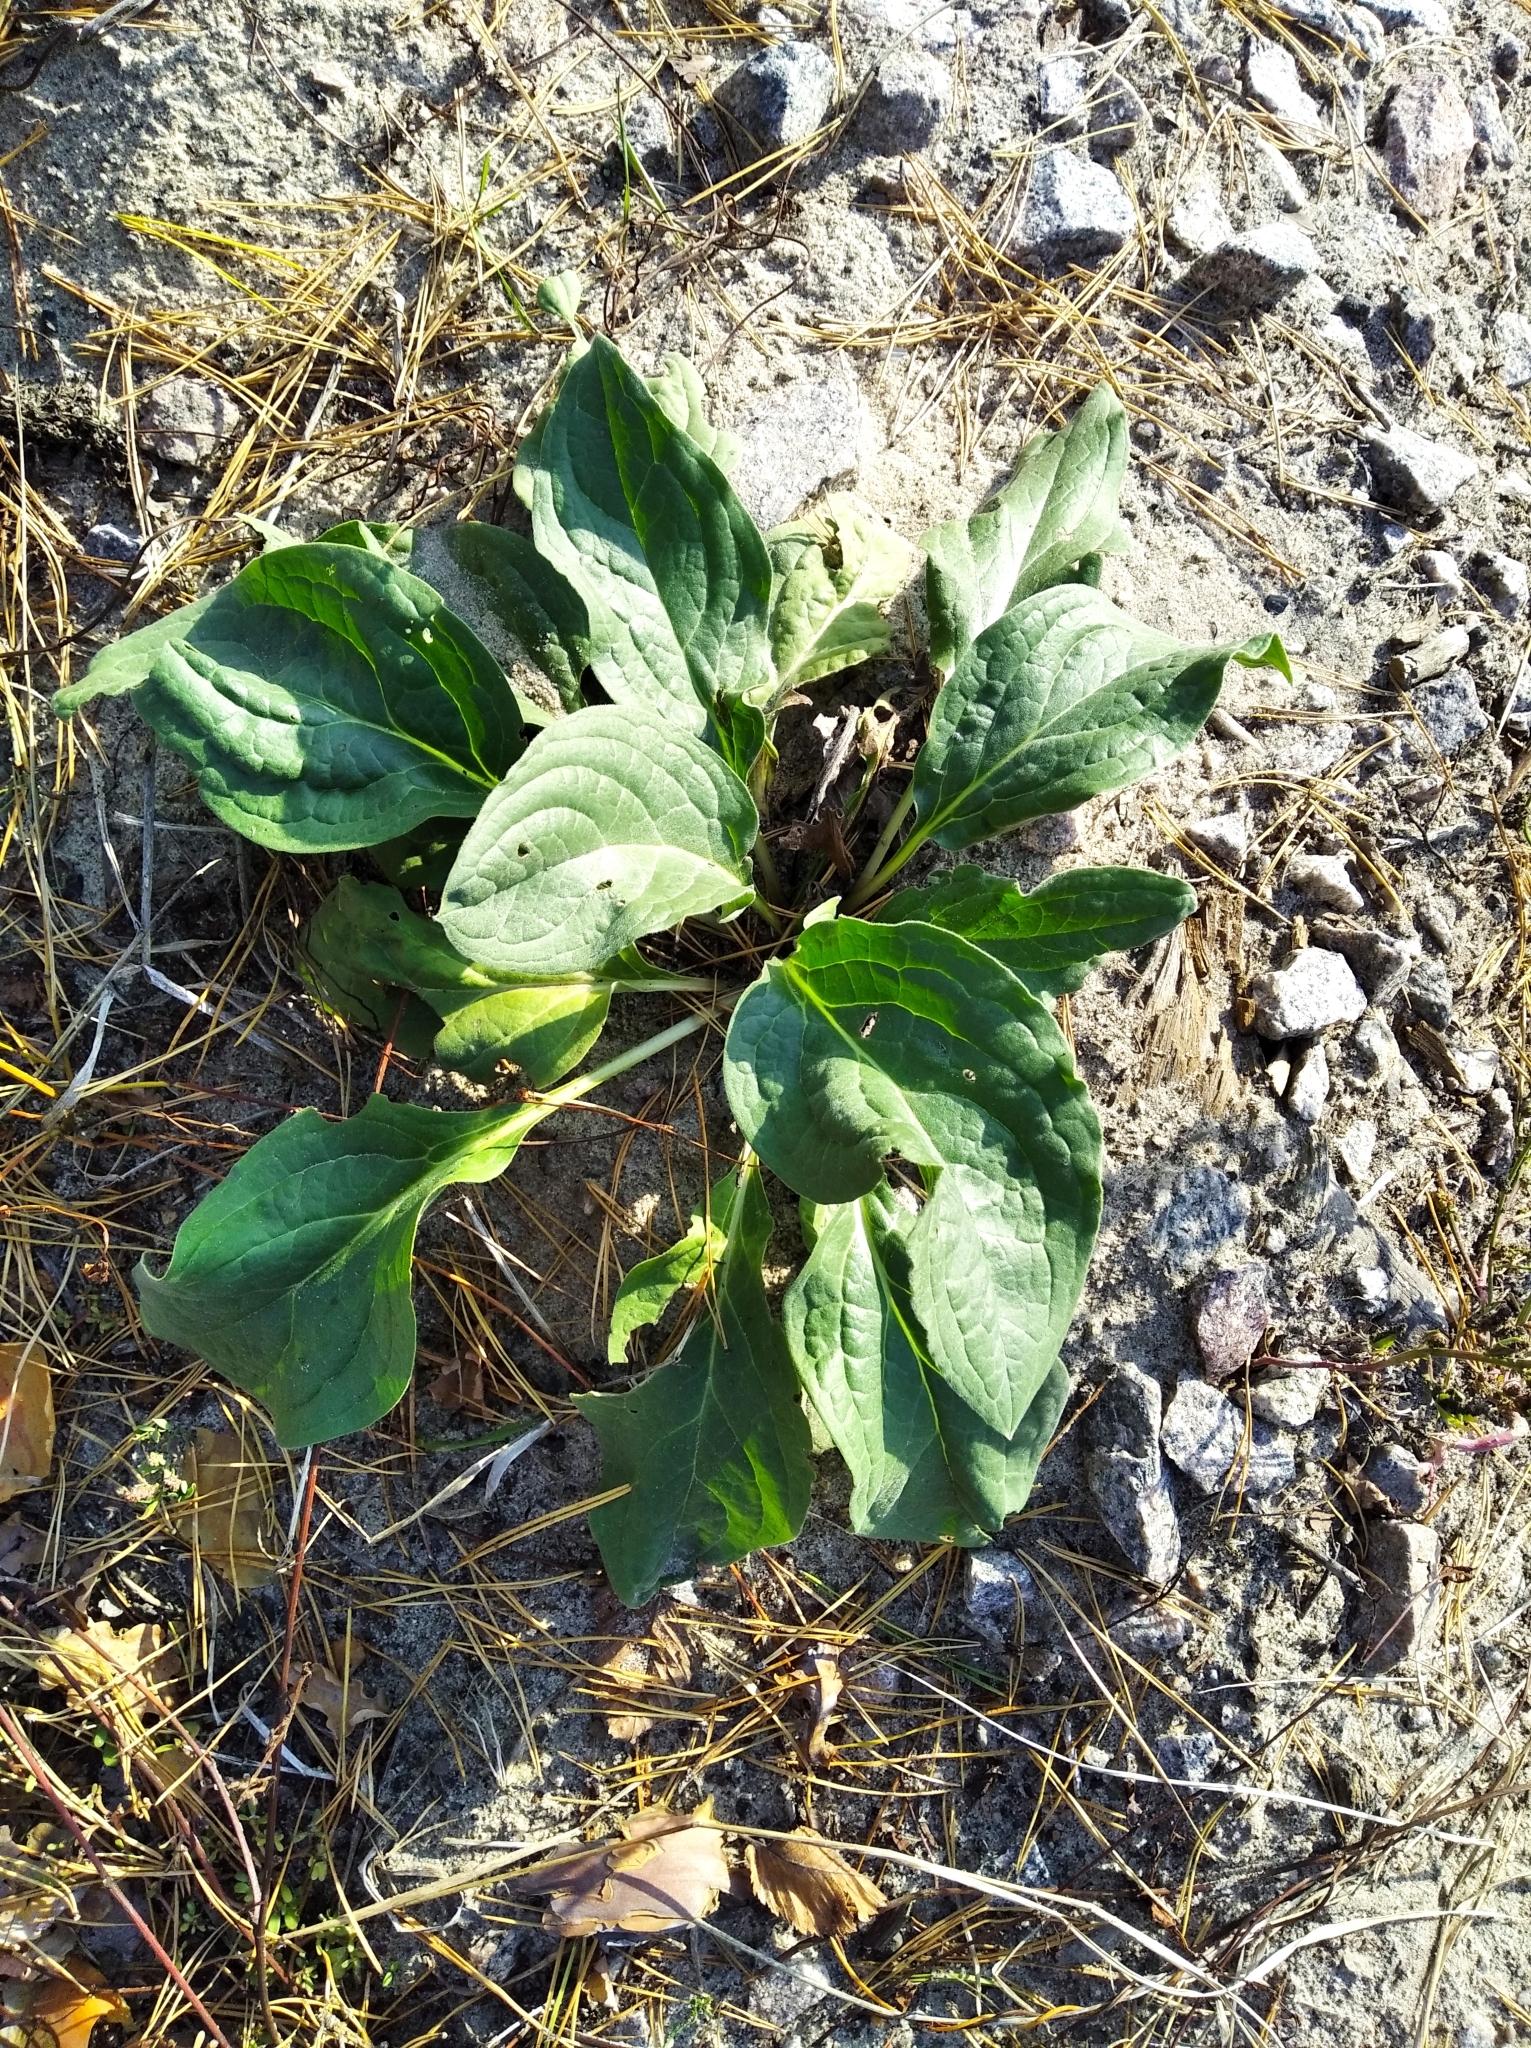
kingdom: Plantae
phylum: Tracheophyta
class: Magnoliopsida
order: Boraginales
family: Boraginaceae
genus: Cynoglossum
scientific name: Cynoglossum officinale
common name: Hound's-tongue
